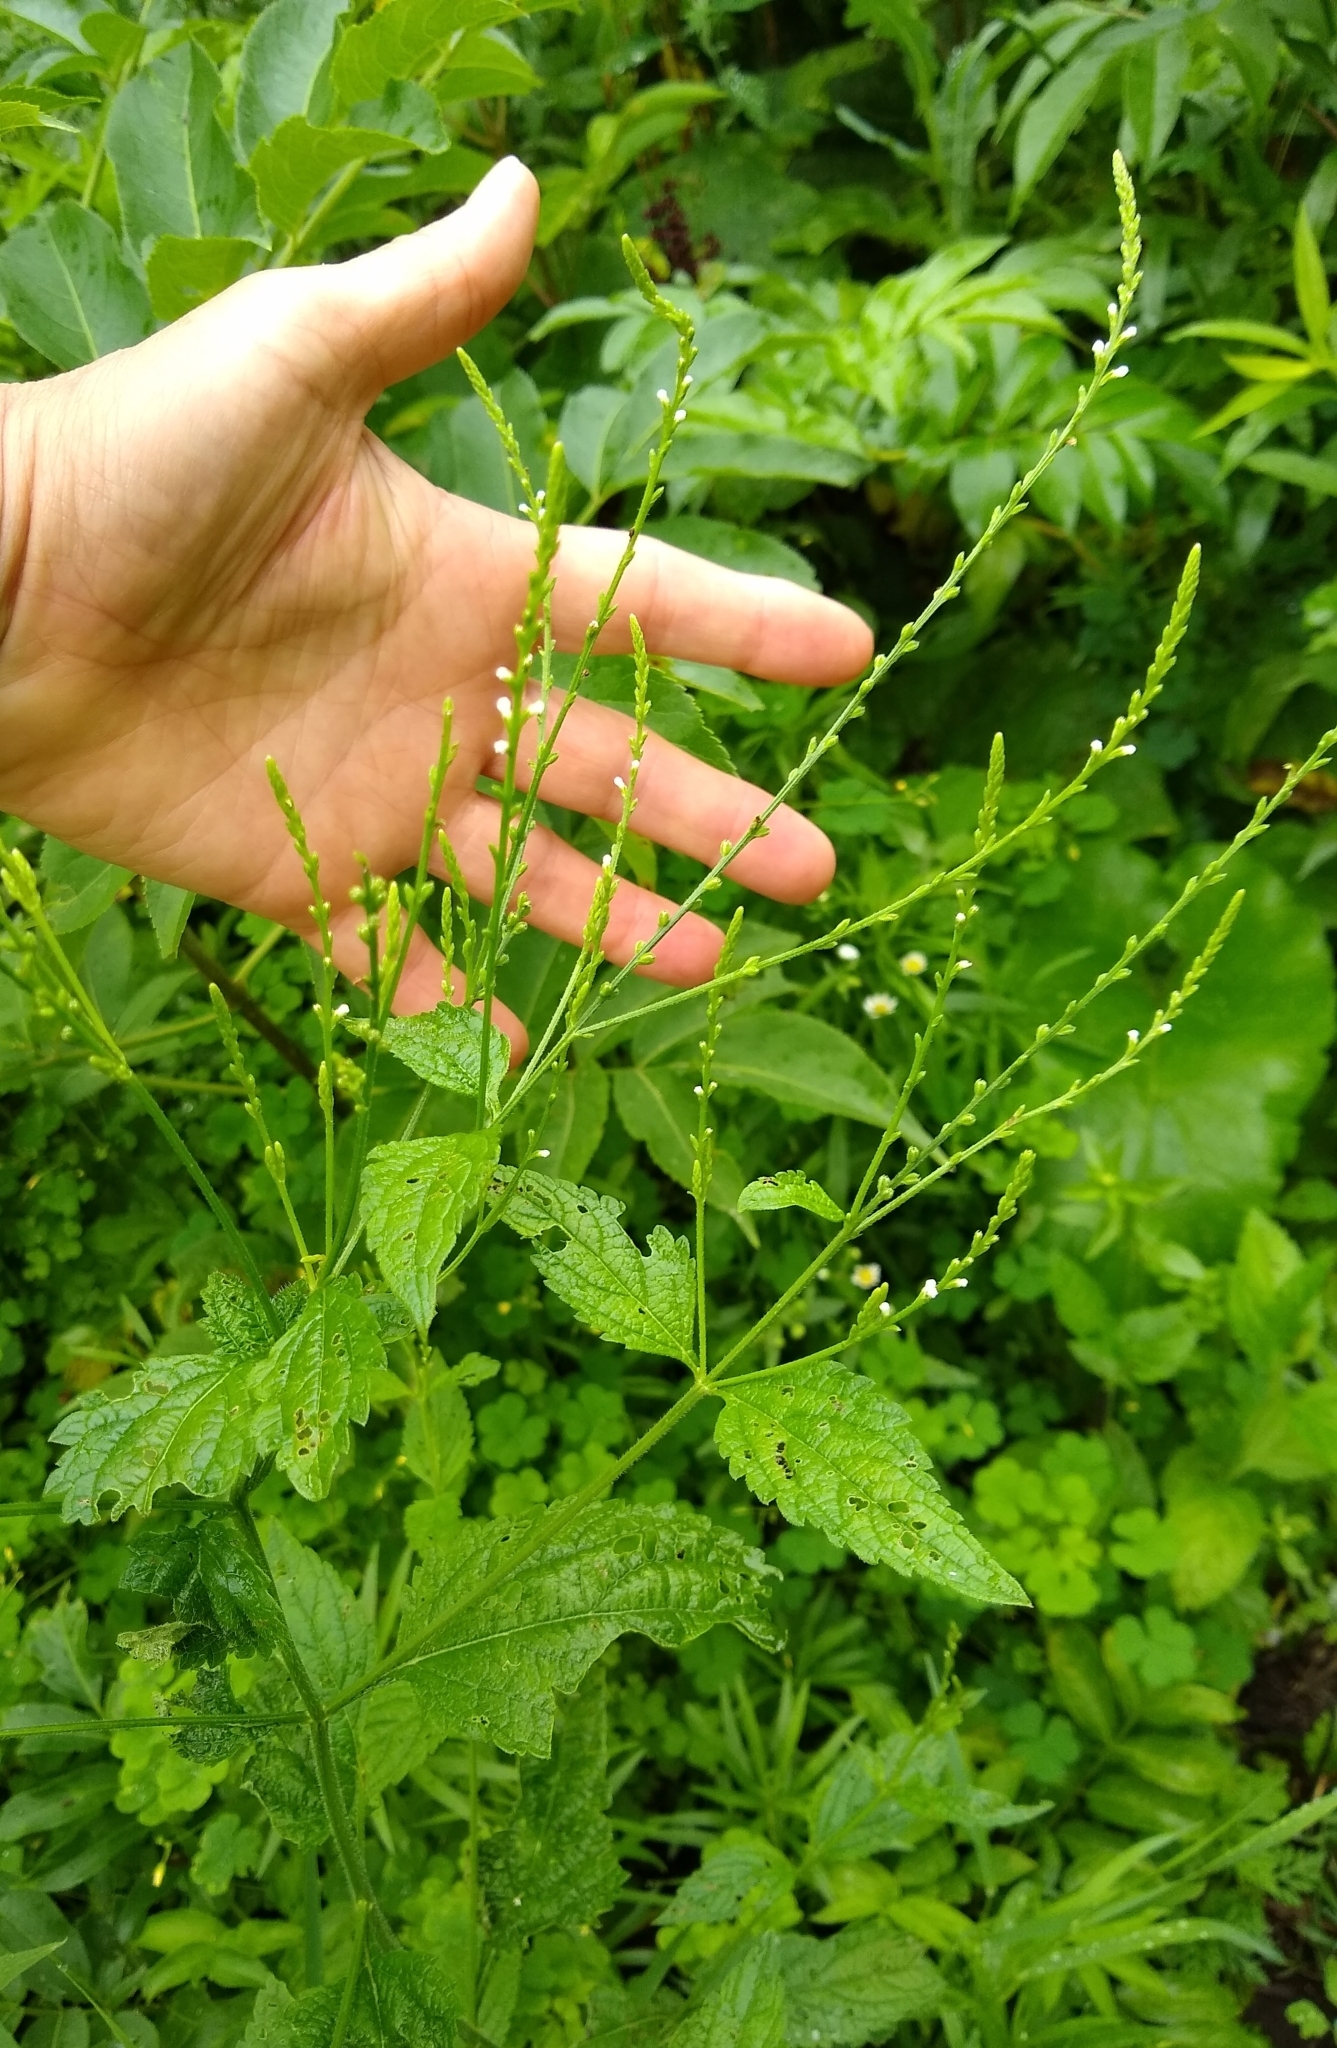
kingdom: Plantae
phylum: Tracheophyta
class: Magnoliopsida
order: Lamiales
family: Verbenaceae
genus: Verbena
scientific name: Verbena urticifolia
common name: Nettle-leaved vervain
